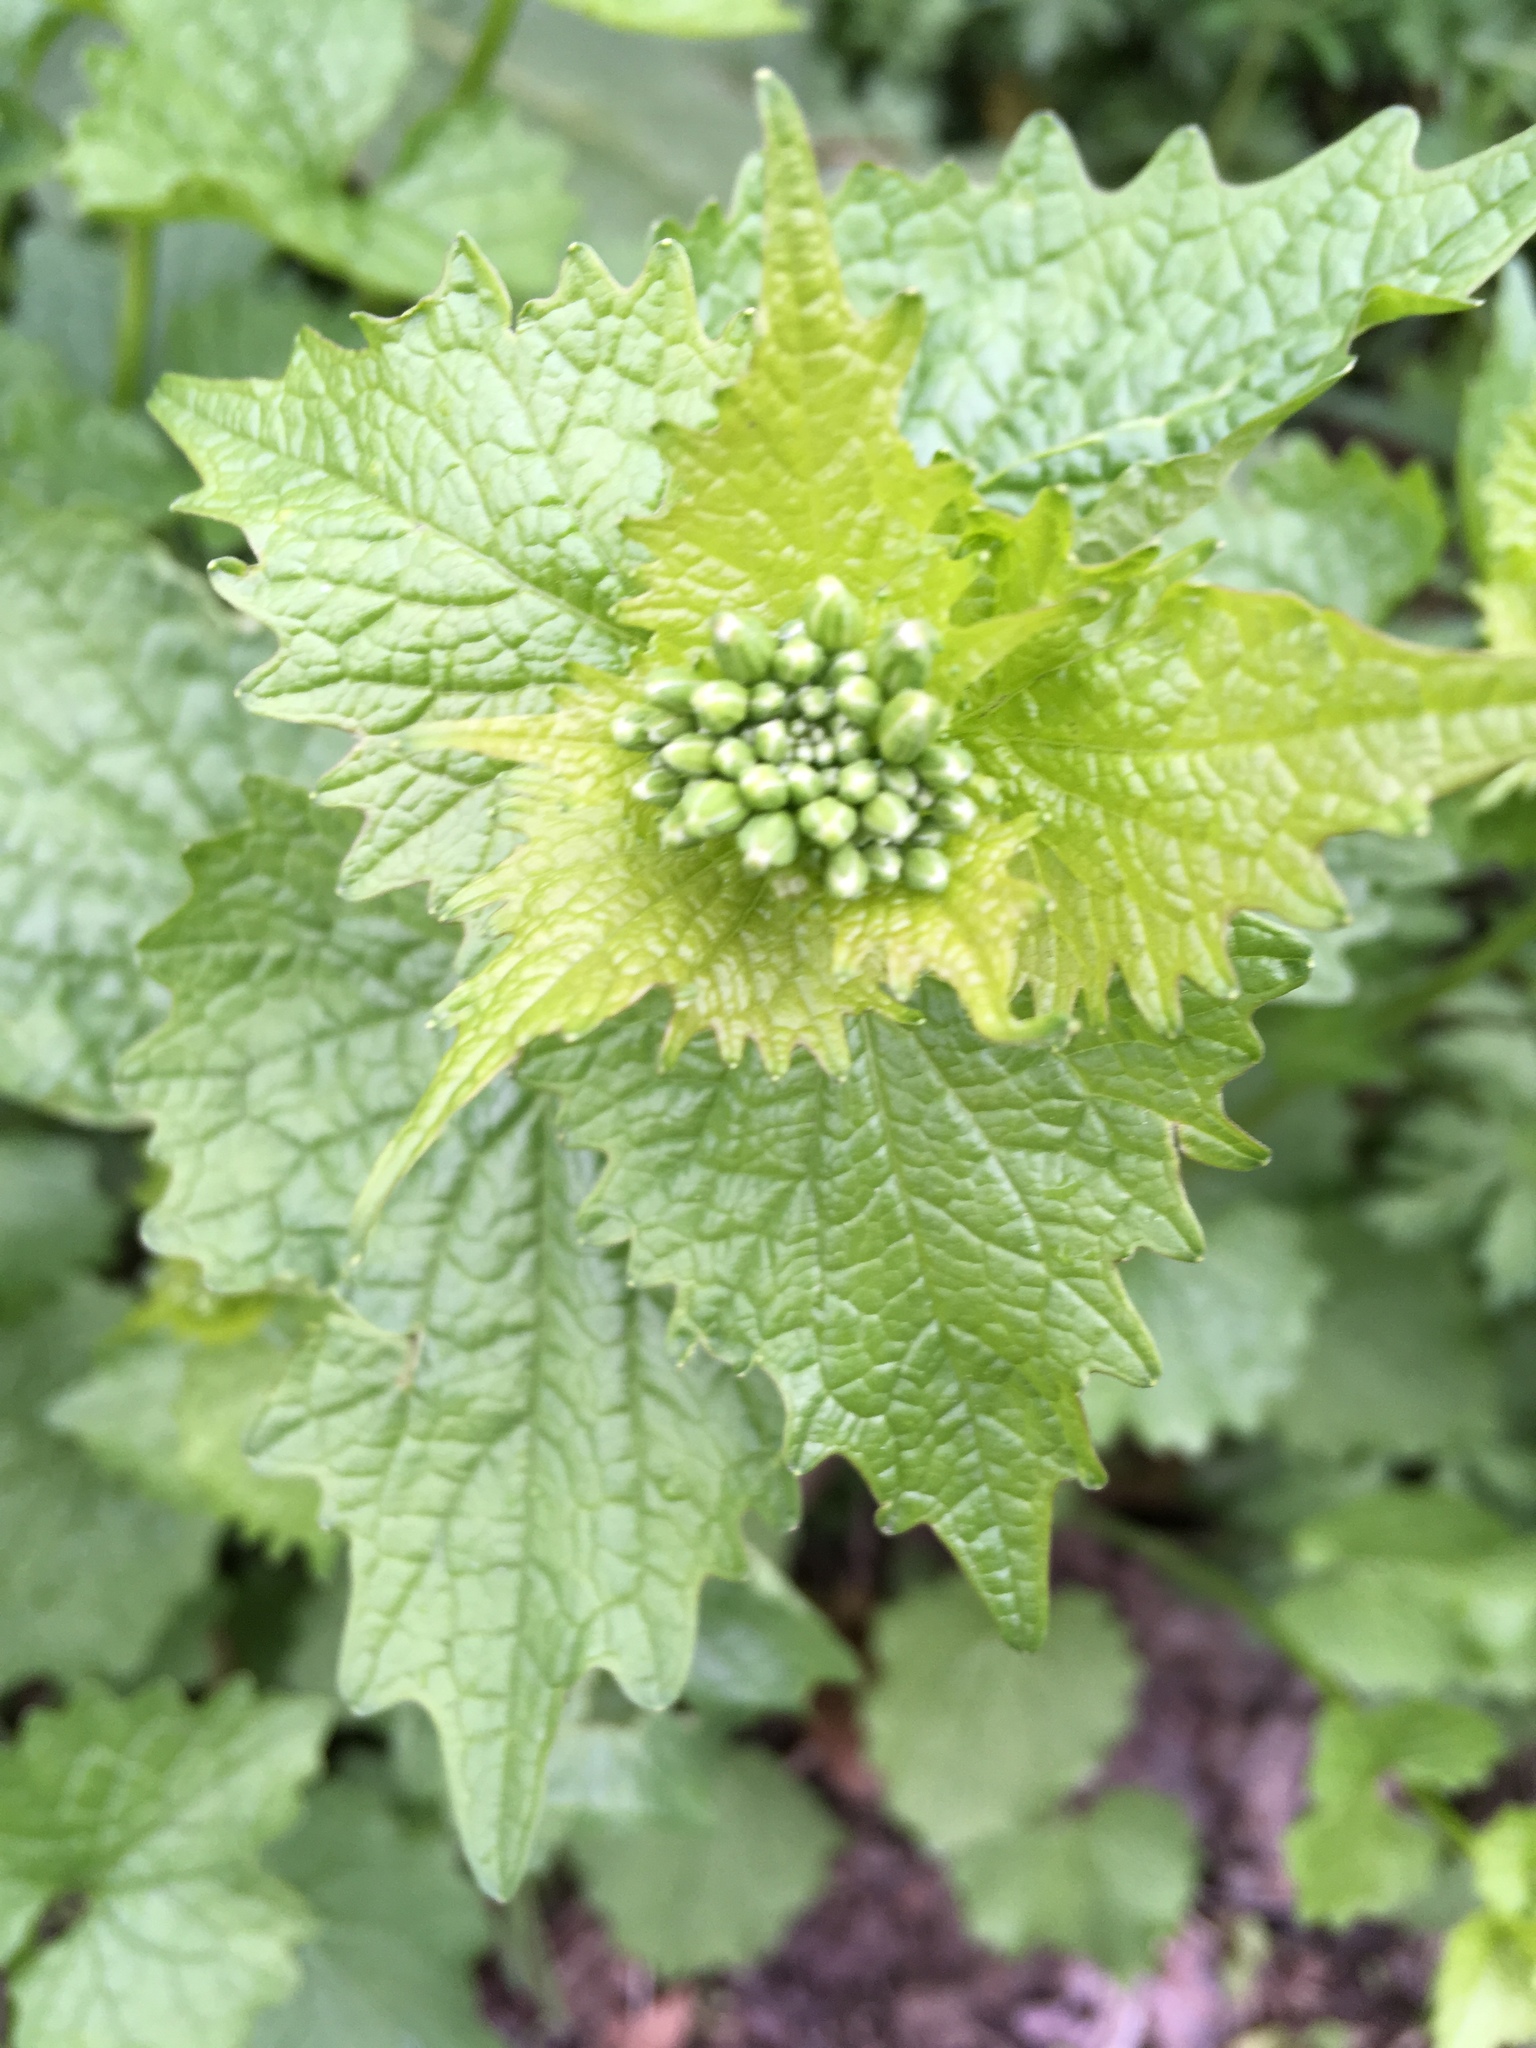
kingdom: Plantae
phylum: Tracheophyta
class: Magnoliopsida
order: Brassicales
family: Brassicaceae
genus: Alliaria
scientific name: Alliaria petiolata
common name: Garlic mustard
